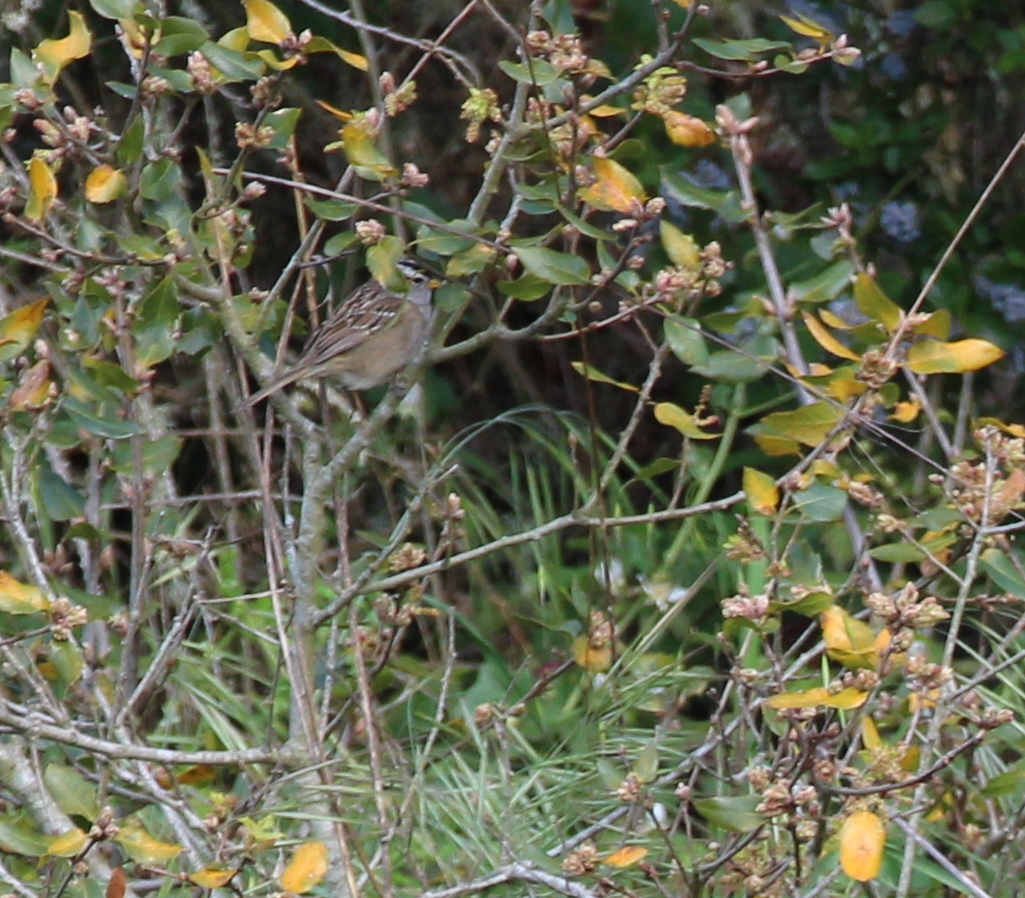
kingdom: Animalia
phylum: Chordata
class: Aves
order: Passeriformes
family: Passerellidae
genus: Zonotrichia
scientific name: Zonotrichia leucophrys
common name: White-crowned sparrow
